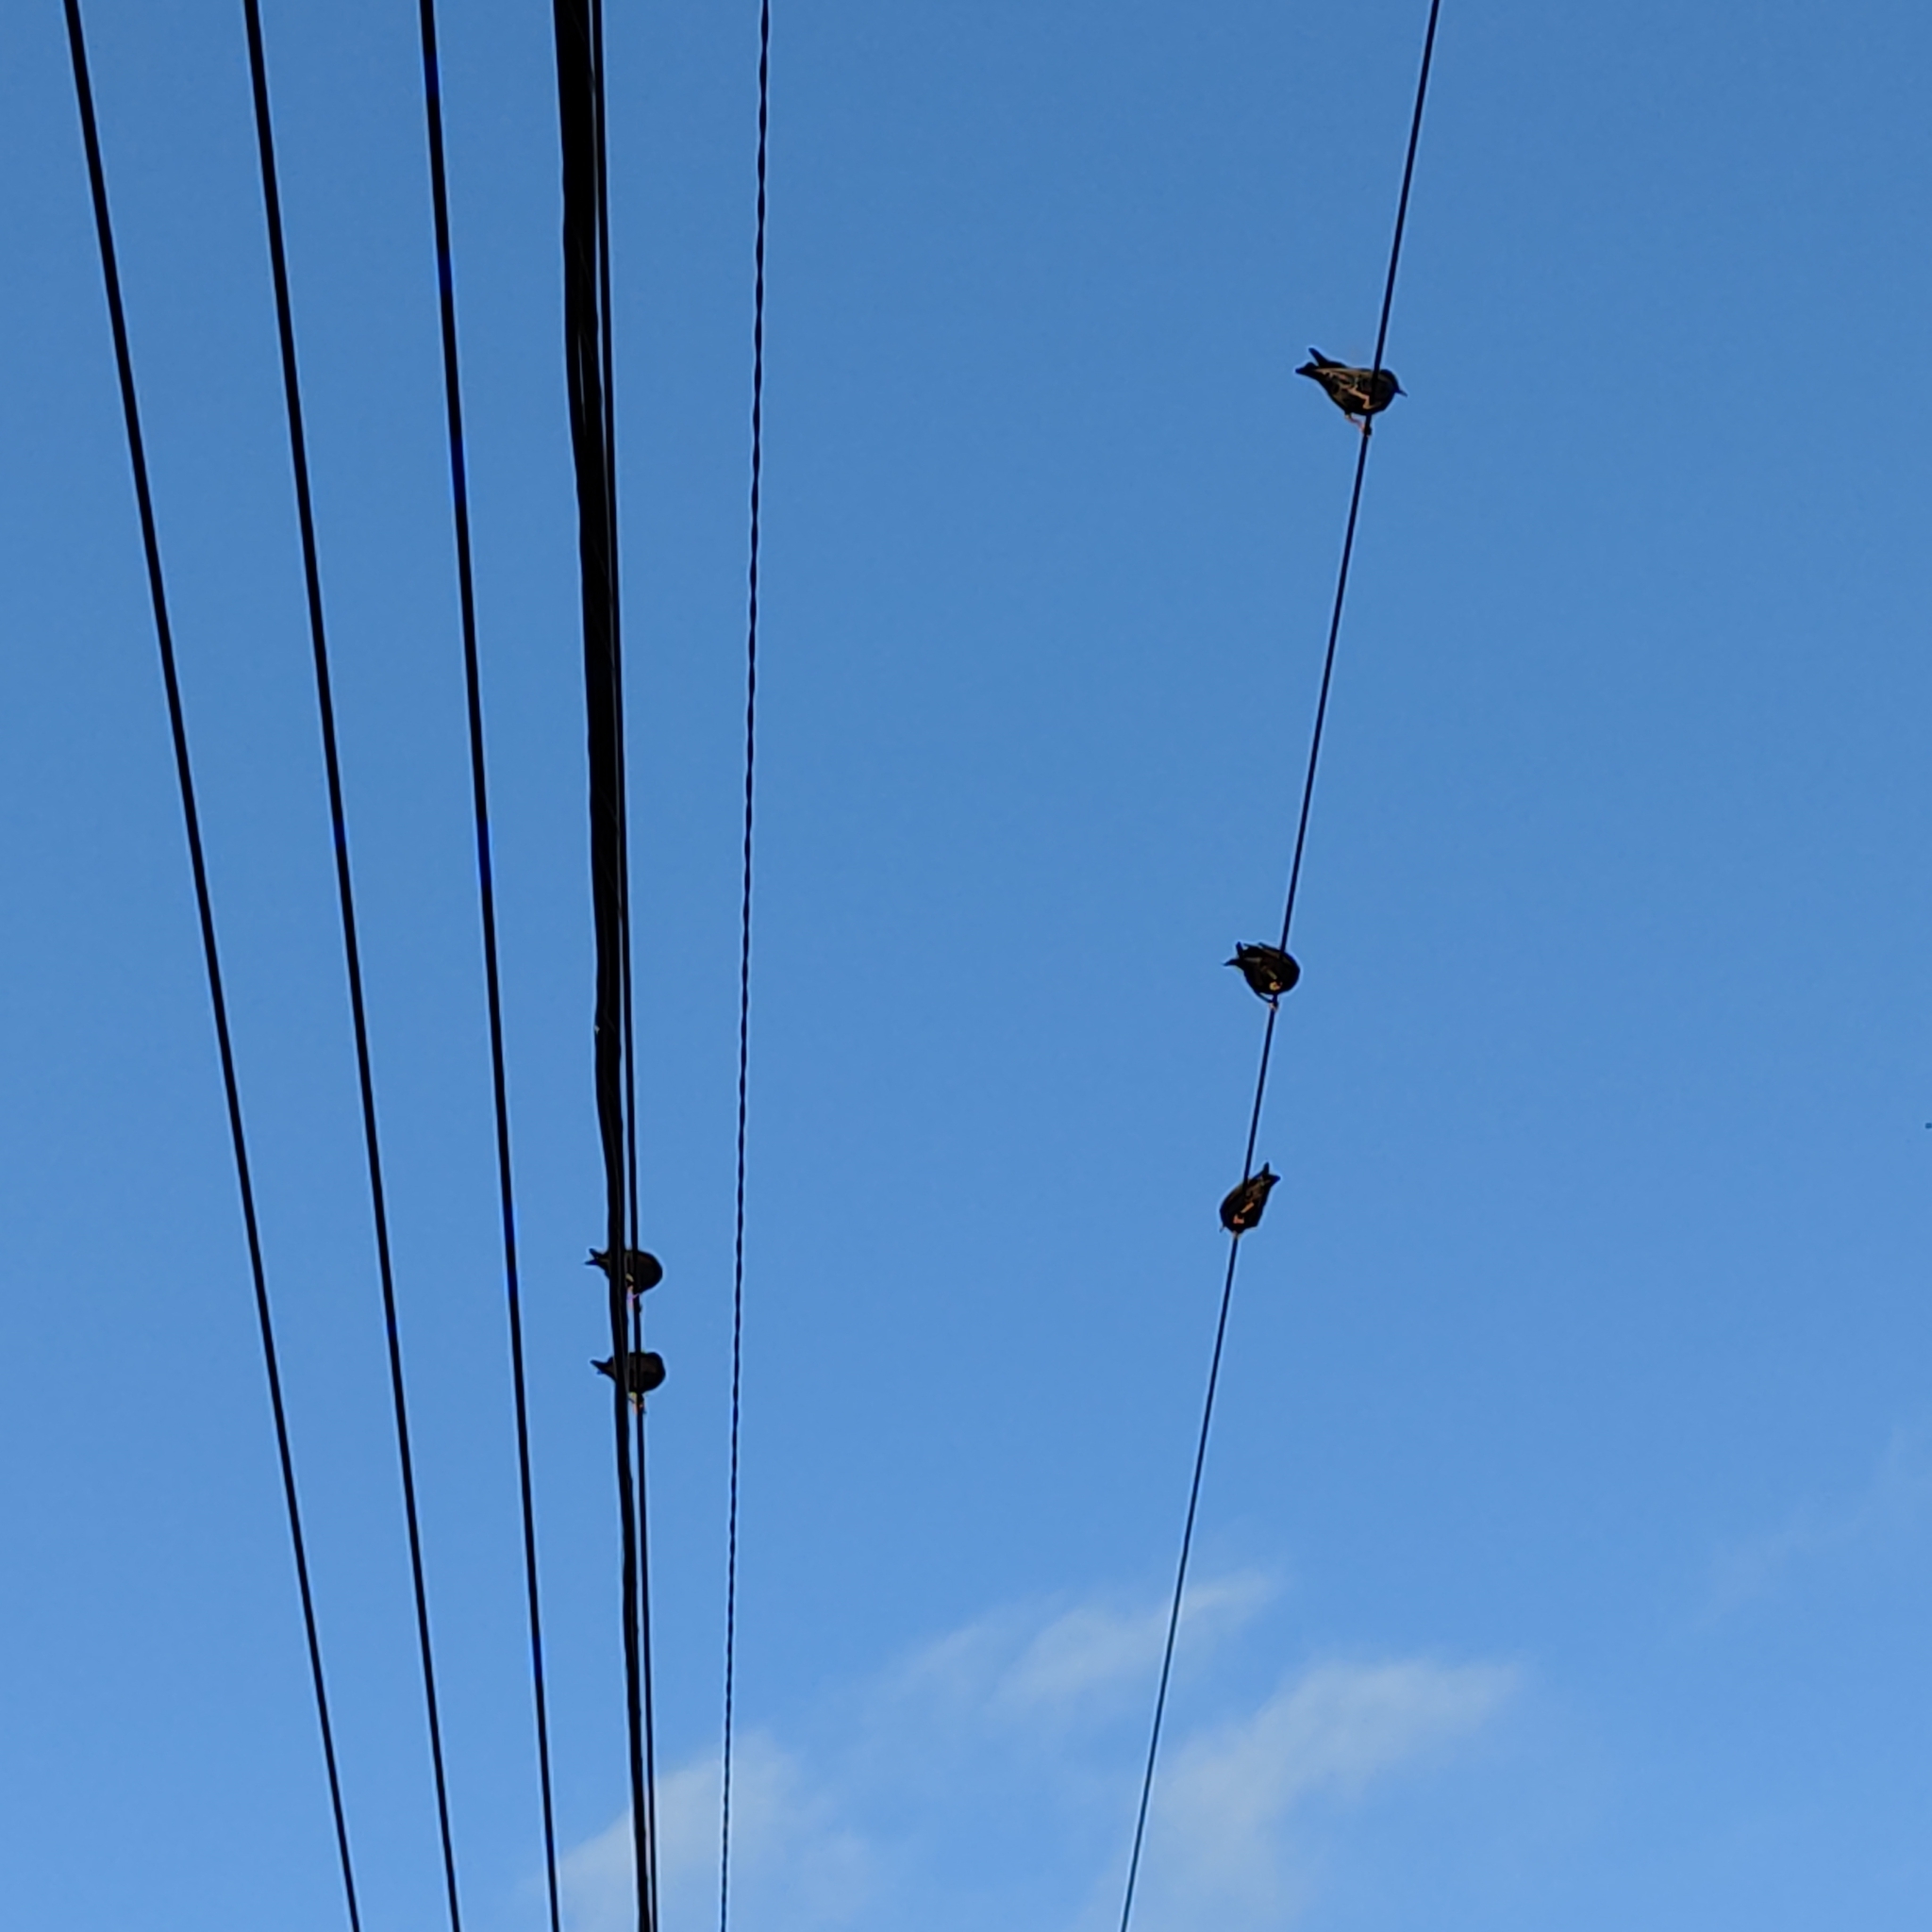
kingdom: Animalia
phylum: Chordata
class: Aves
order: Passeriformes
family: Sturnidae
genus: Sturnus
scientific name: Sturnus vulgaris
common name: Common starling
